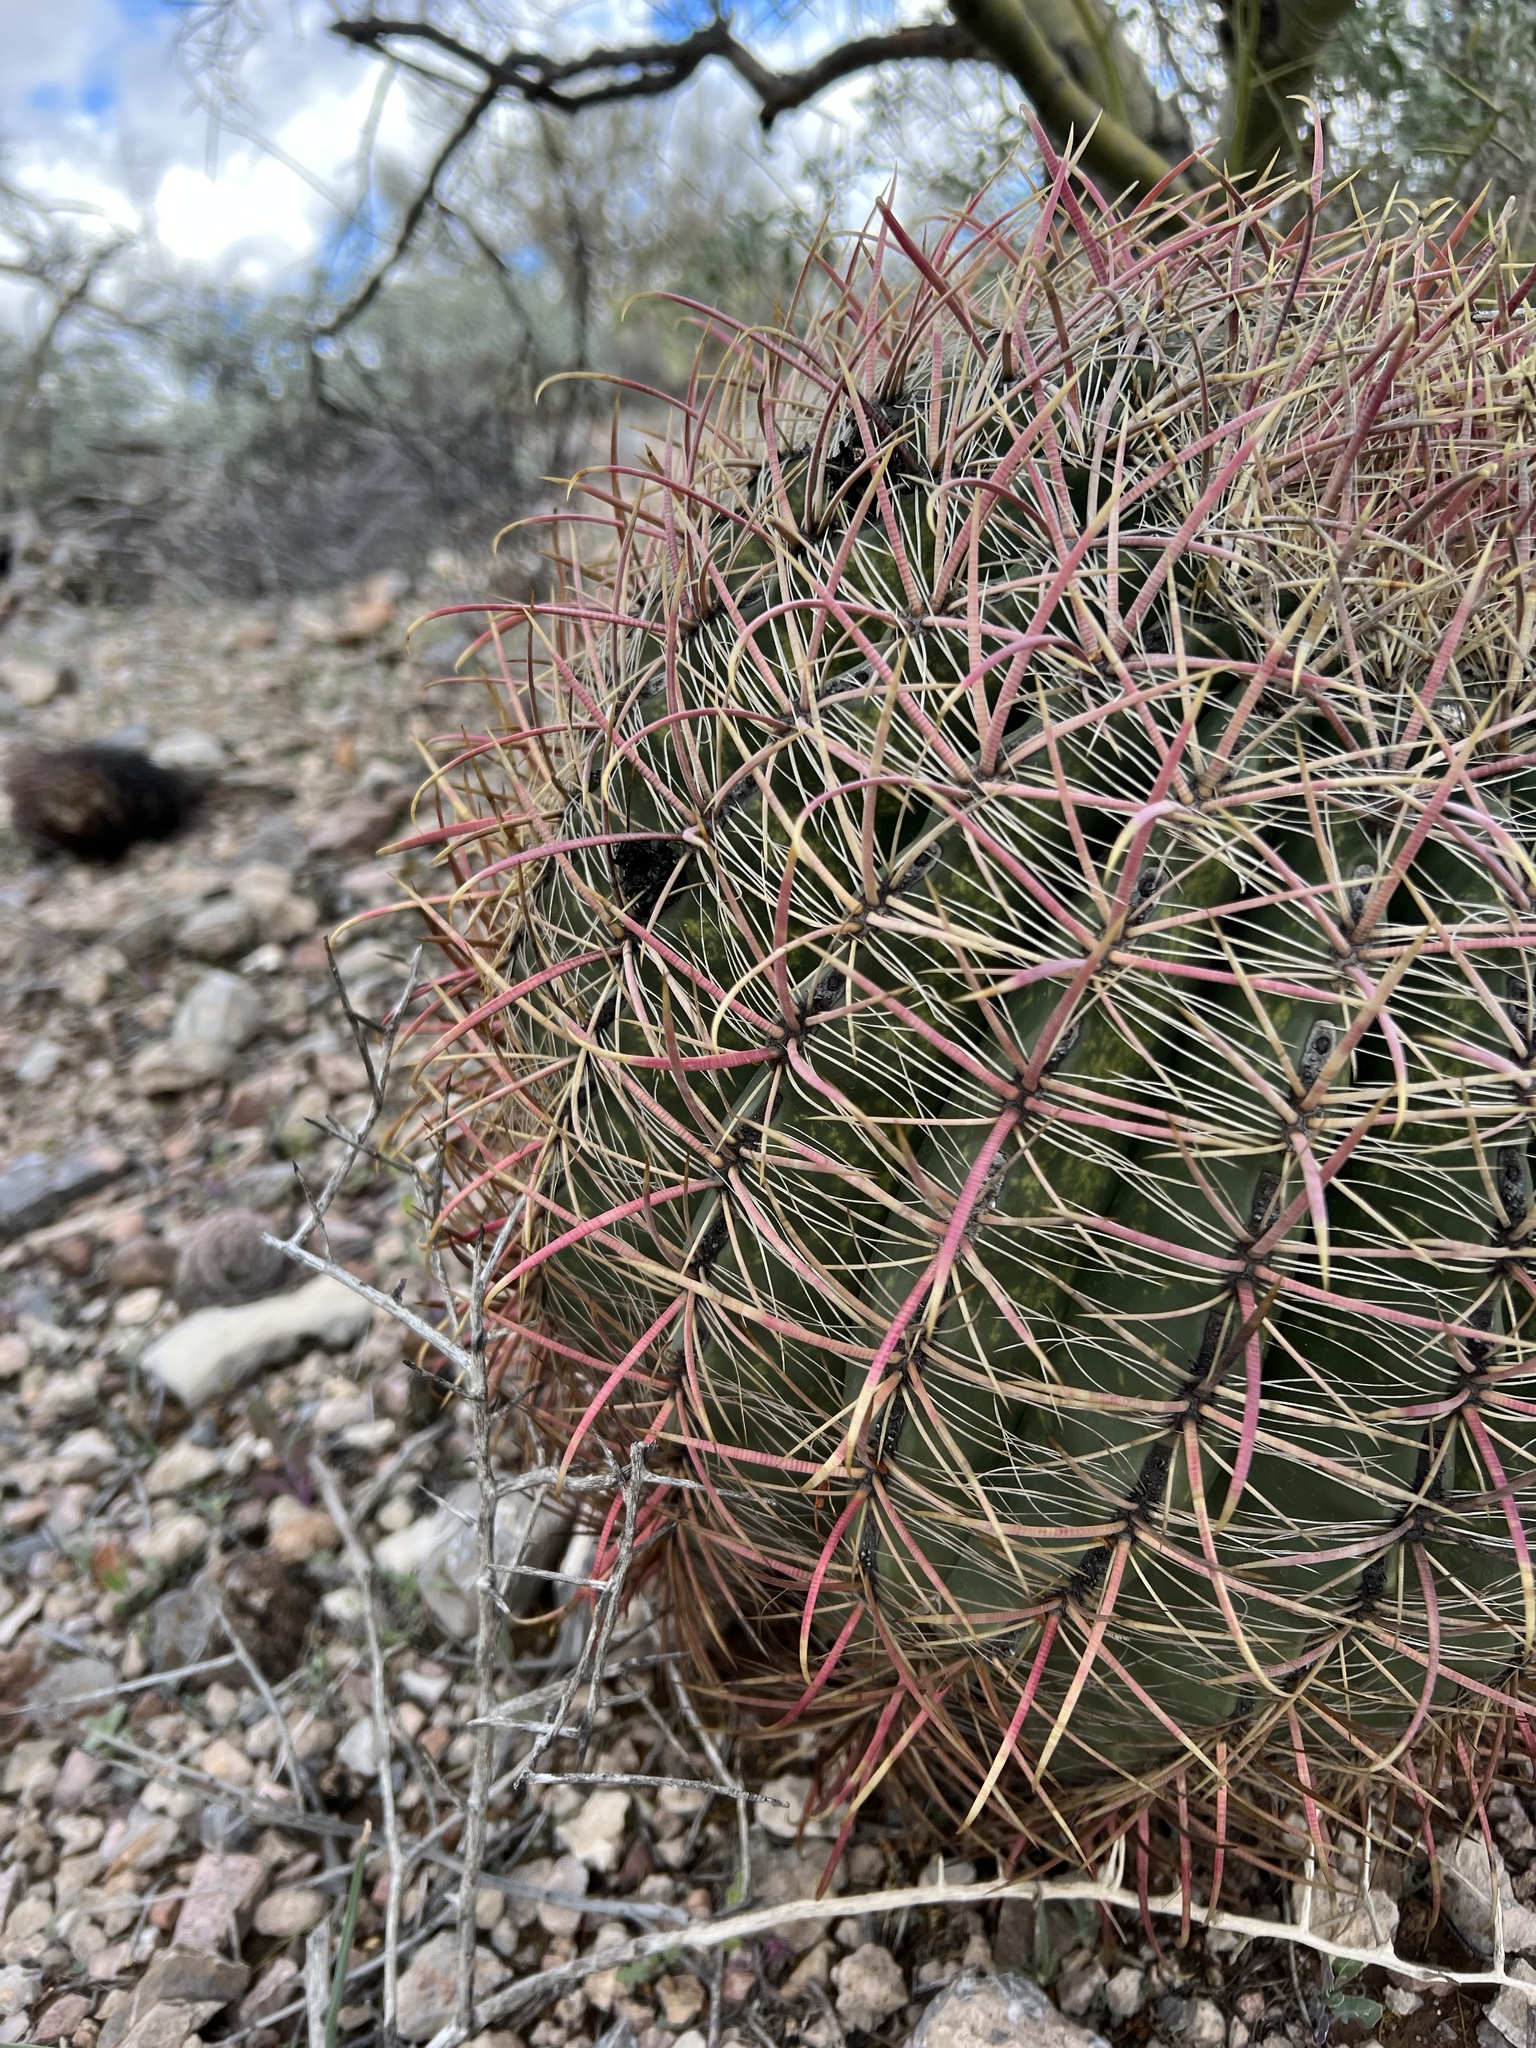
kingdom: Plantae
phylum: Tracheophyta
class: Magnoliopsida
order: Caryophyllales
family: Cactaceae
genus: Ferocactus
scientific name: Ferocactus cylindraceus
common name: California barrel cactus
